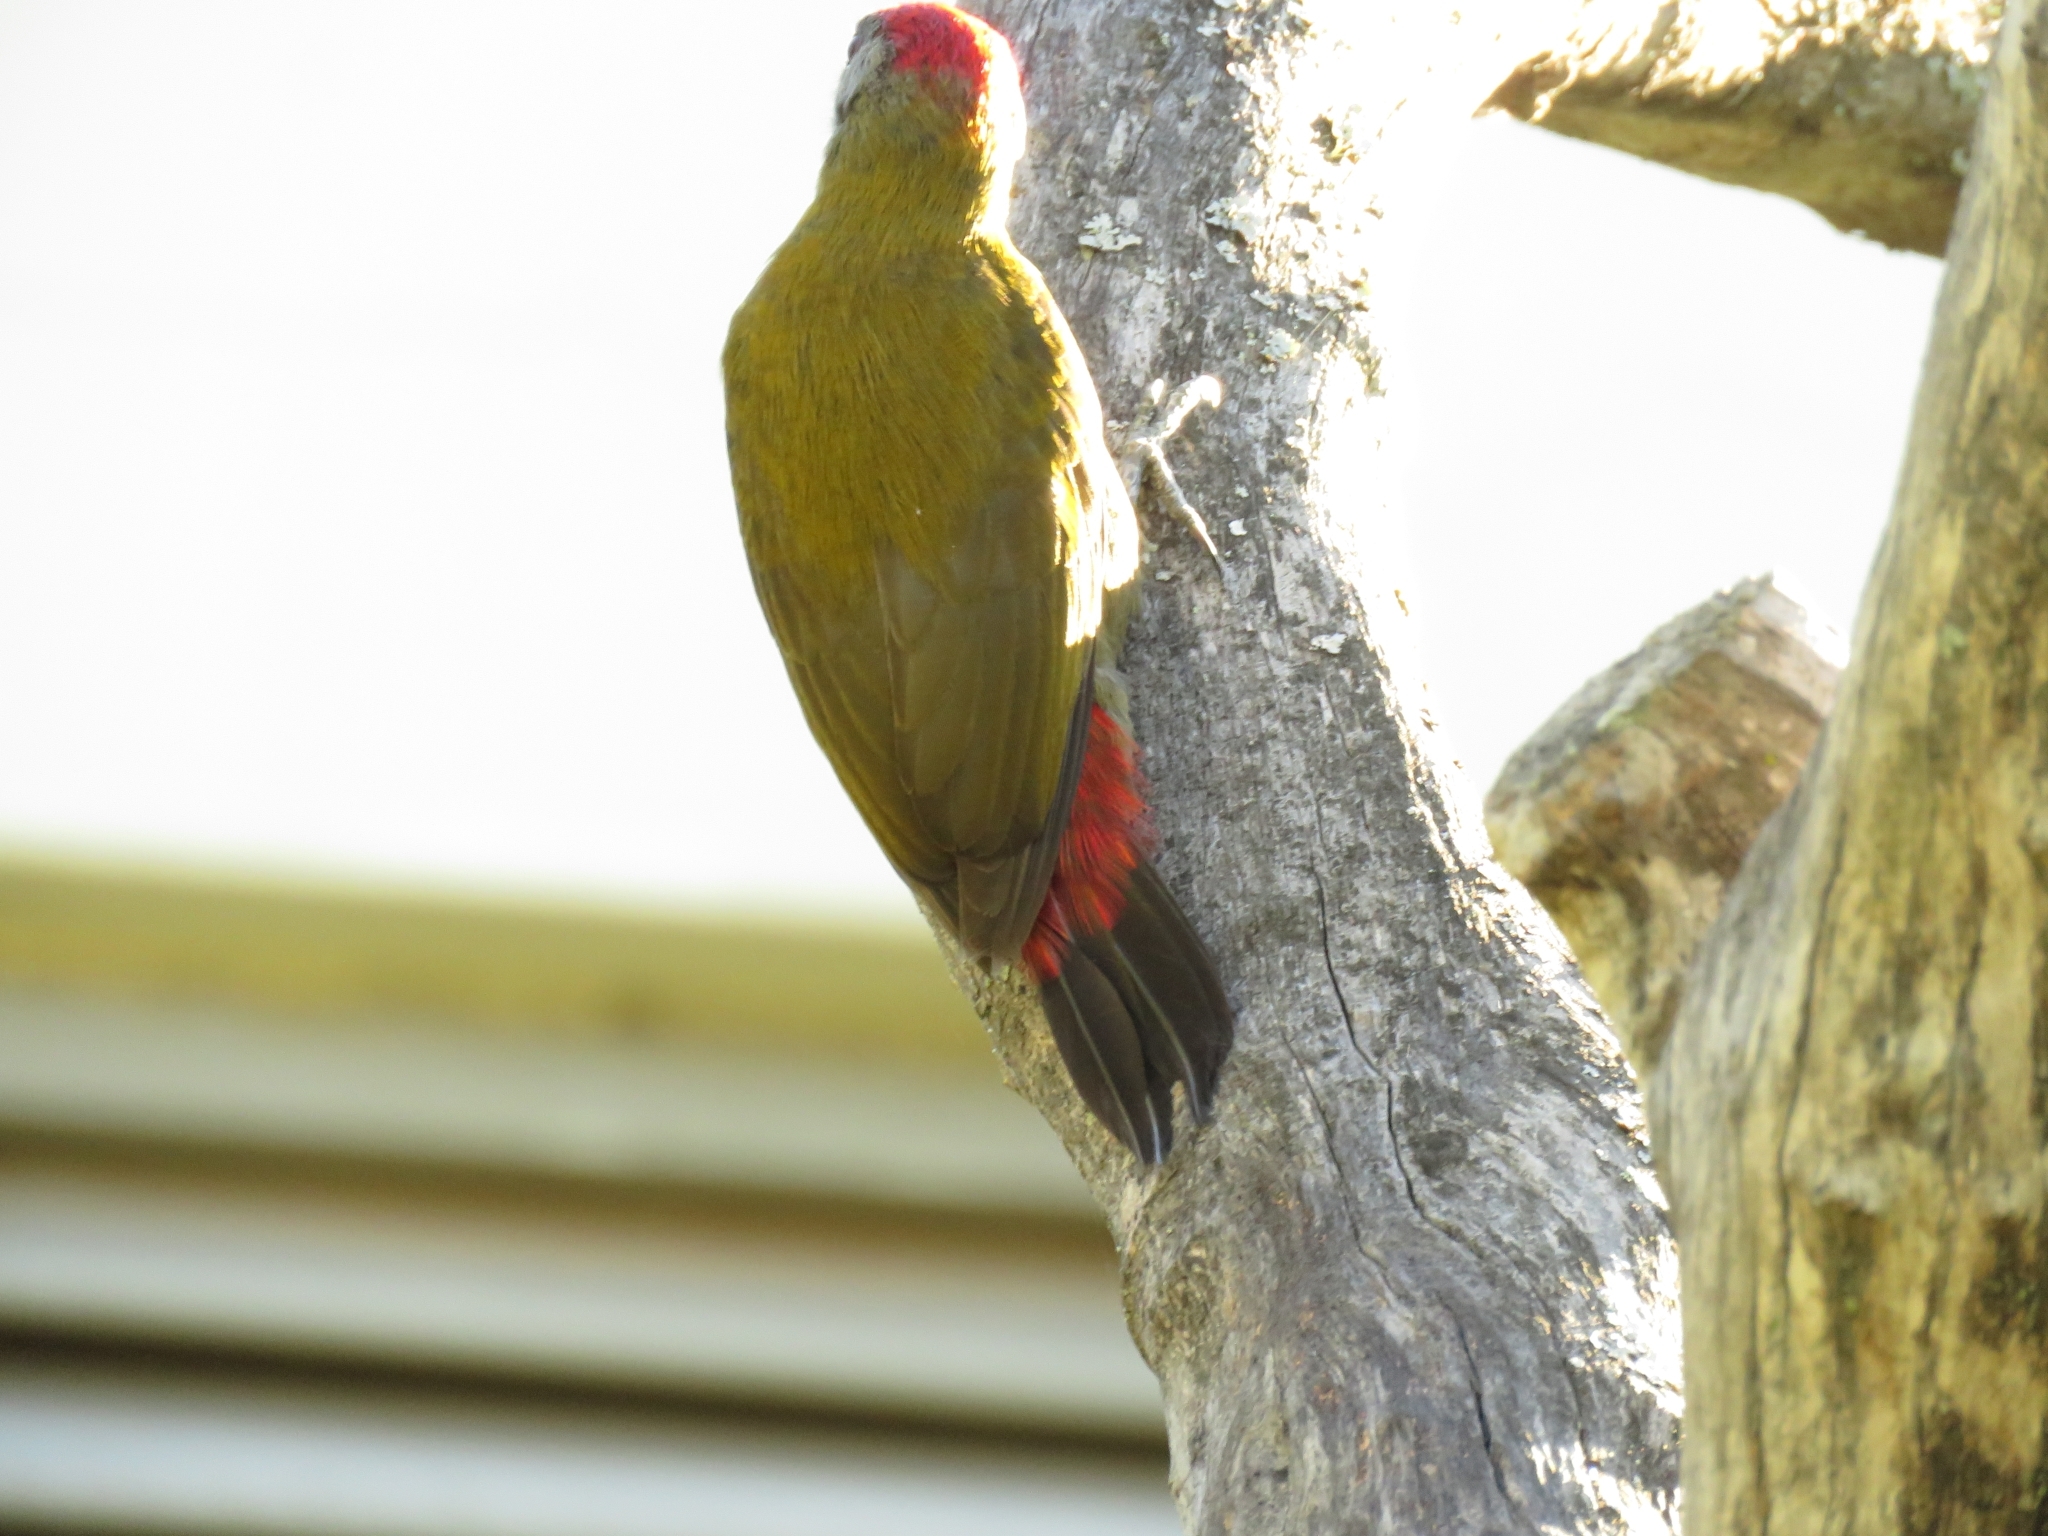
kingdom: Animalia
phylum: Chordata
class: Aves
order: Piciformes
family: Picidae
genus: Dendropicos
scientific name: Dendropicos griseocephalus
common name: Olive woodpecker
